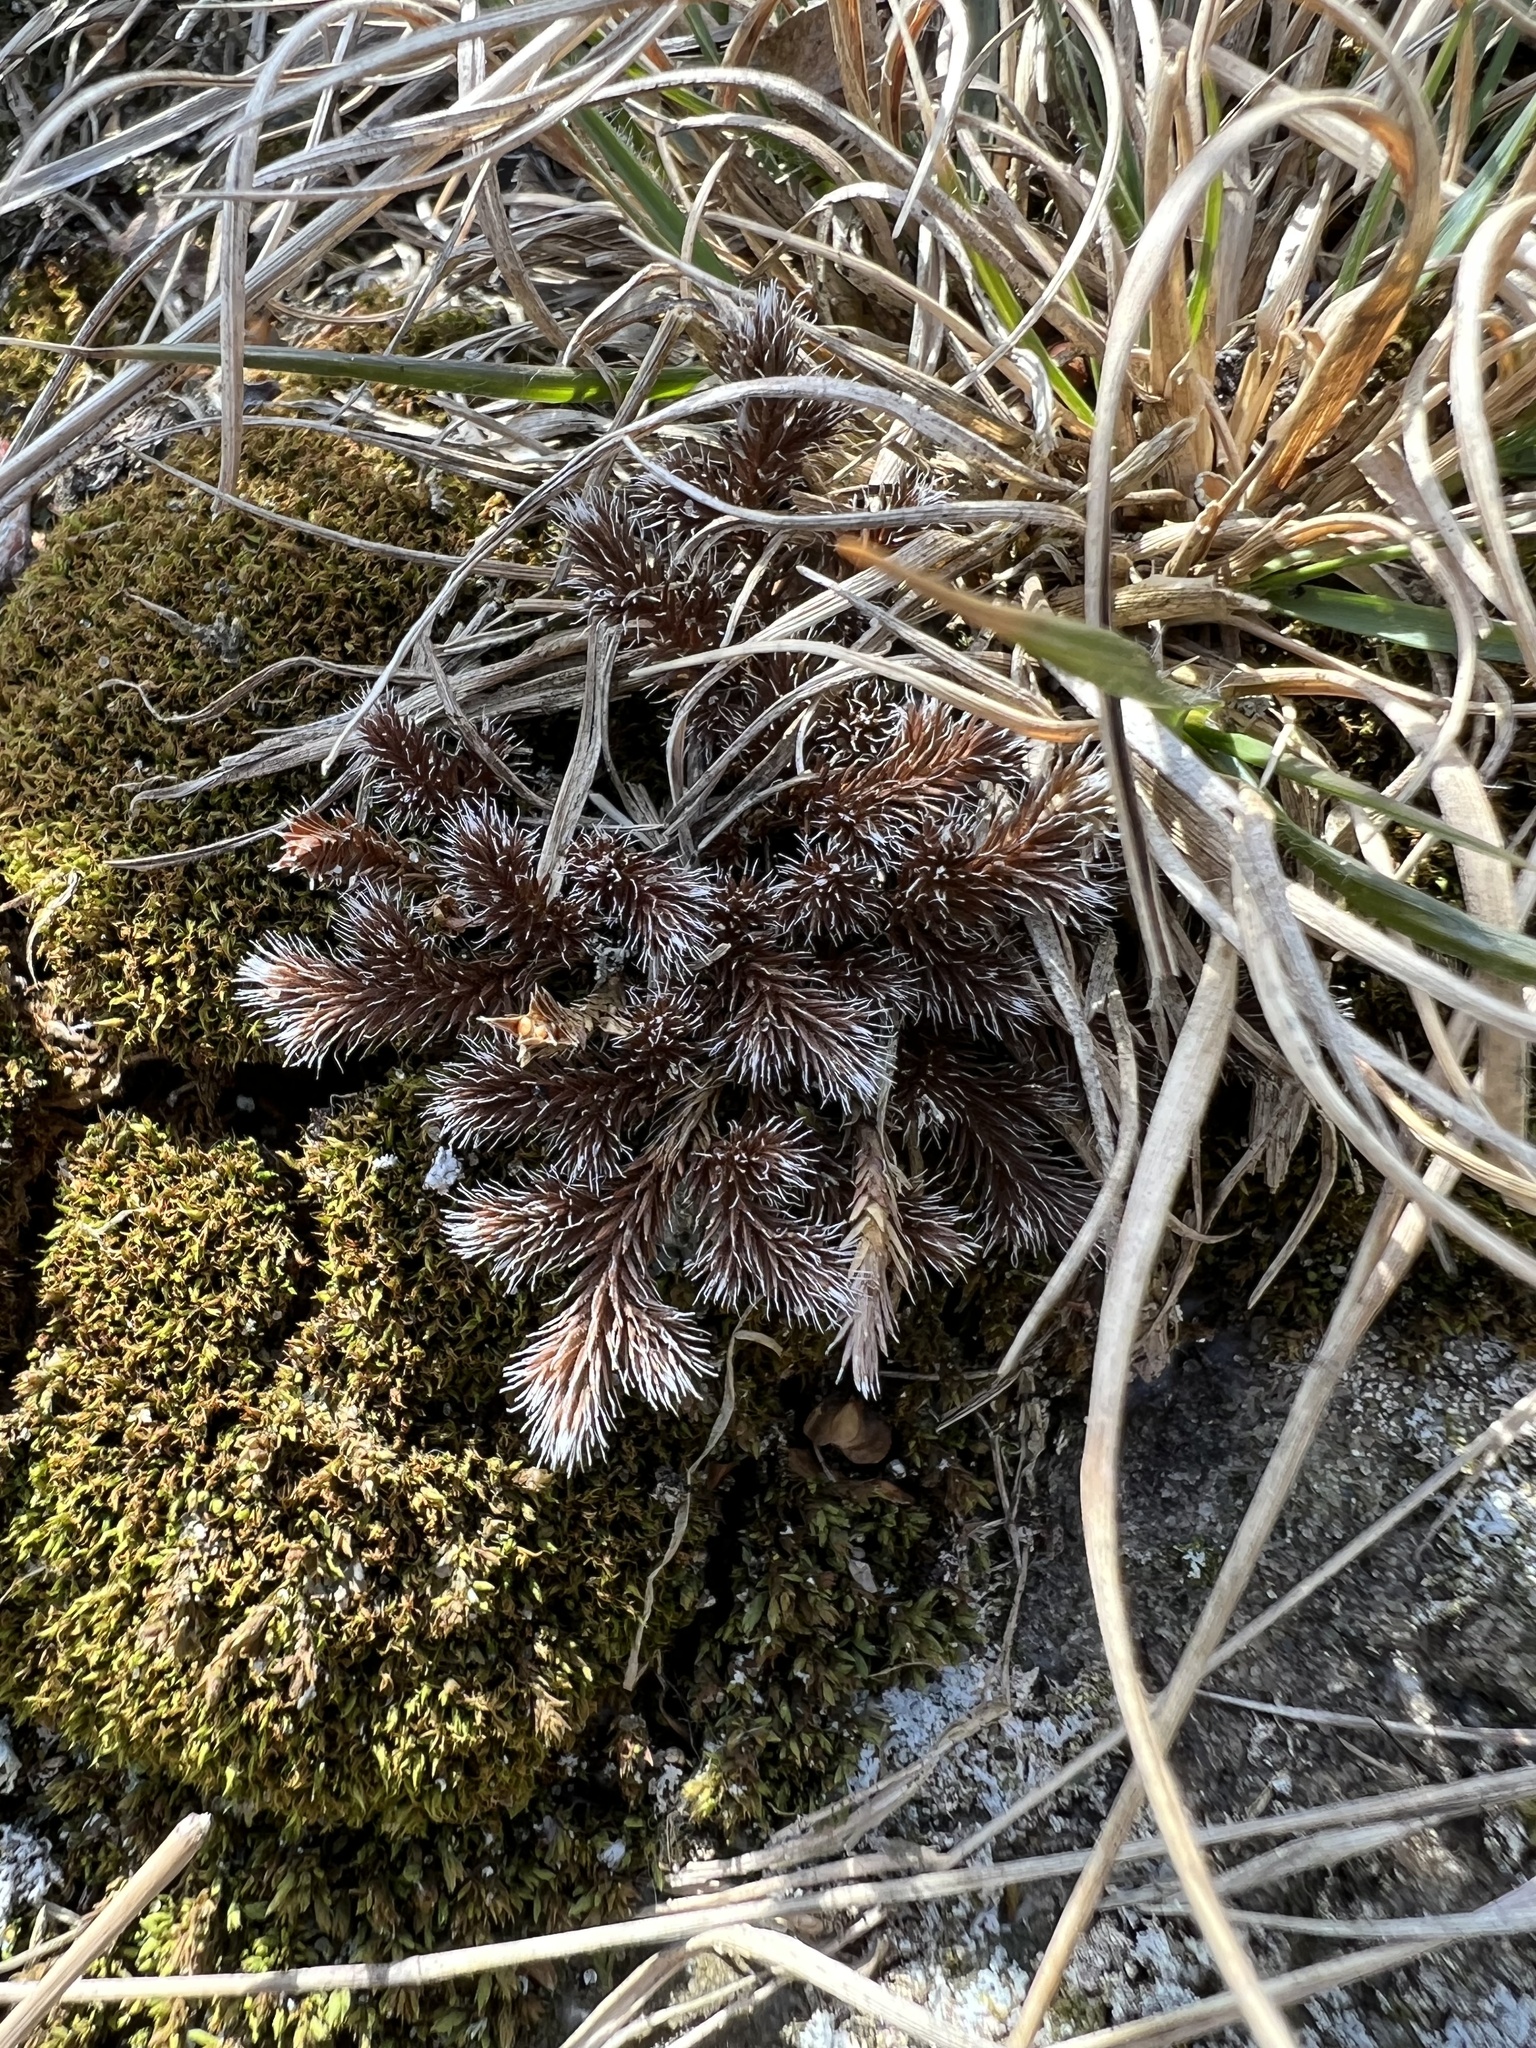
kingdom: Plantae
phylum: Tracheophyta
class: Lycopodiopsida
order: Selaginellales
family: Selaginellaceae
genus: Selaginella
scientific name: Selaginella rupestris
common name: Dwarf spikemoss
